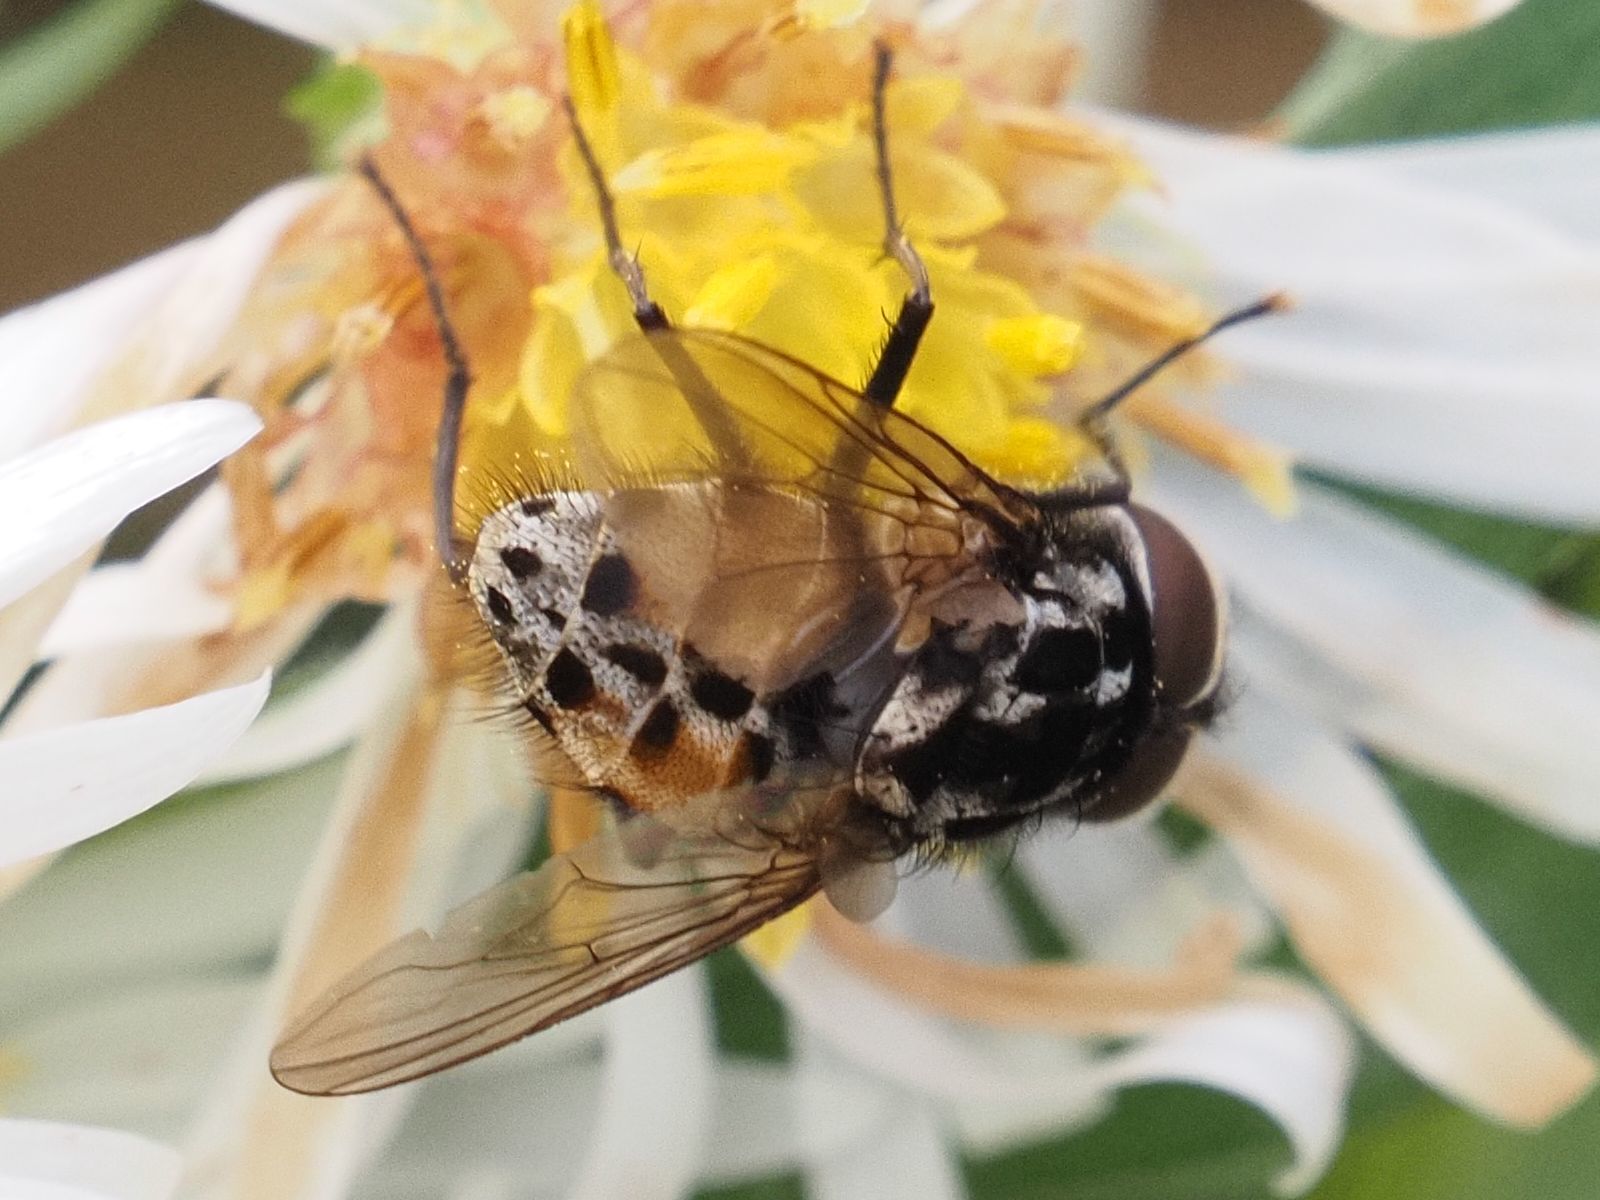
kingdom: Animalia
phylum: Arthropoda
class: Insecta
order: Diptera
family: Muscidae
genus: Graphomya
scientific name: Graphomya maculata
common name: Muscid fly
